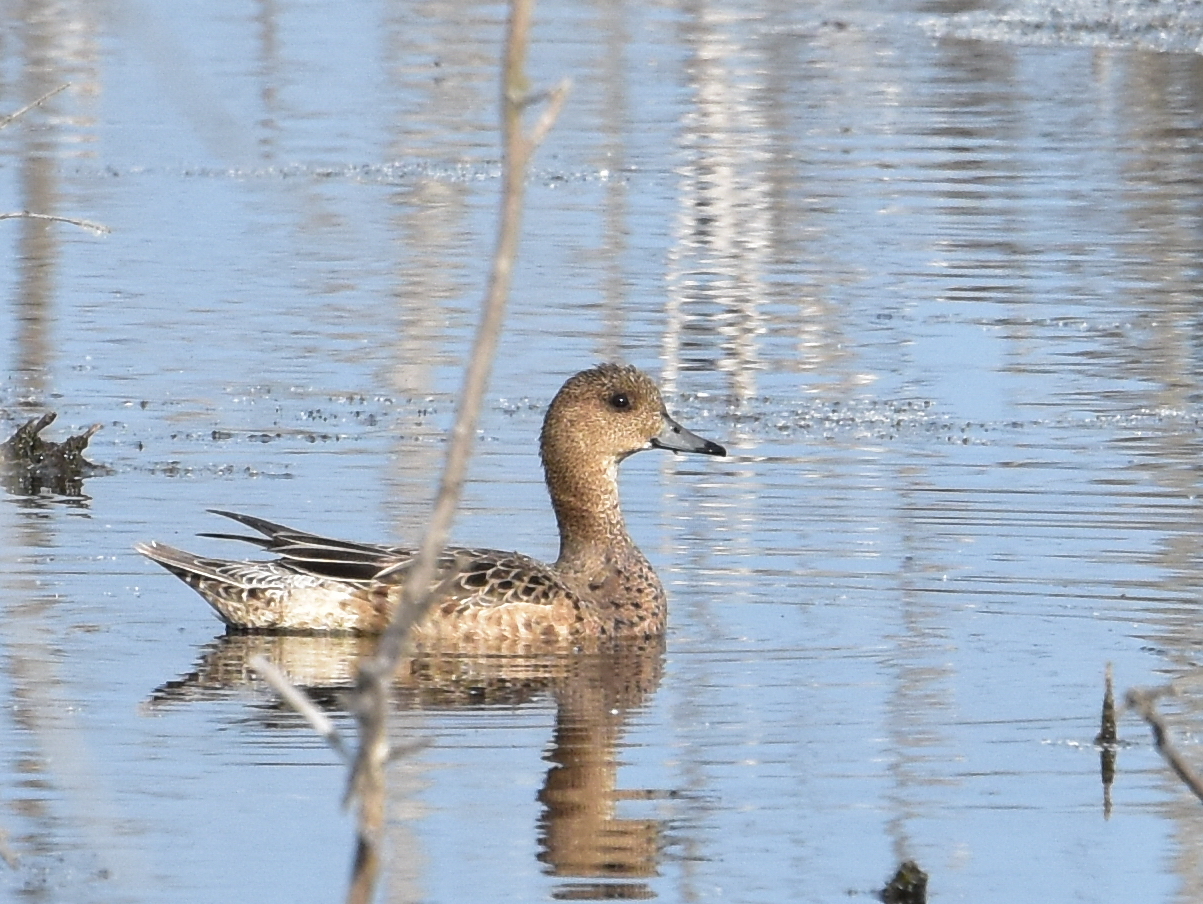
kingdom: Animalia
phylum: Chordata
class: Aves
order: Anseriformes
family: Anatidae
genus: Mareca
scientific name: Mareca penelope
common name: Eurasian wigeon
